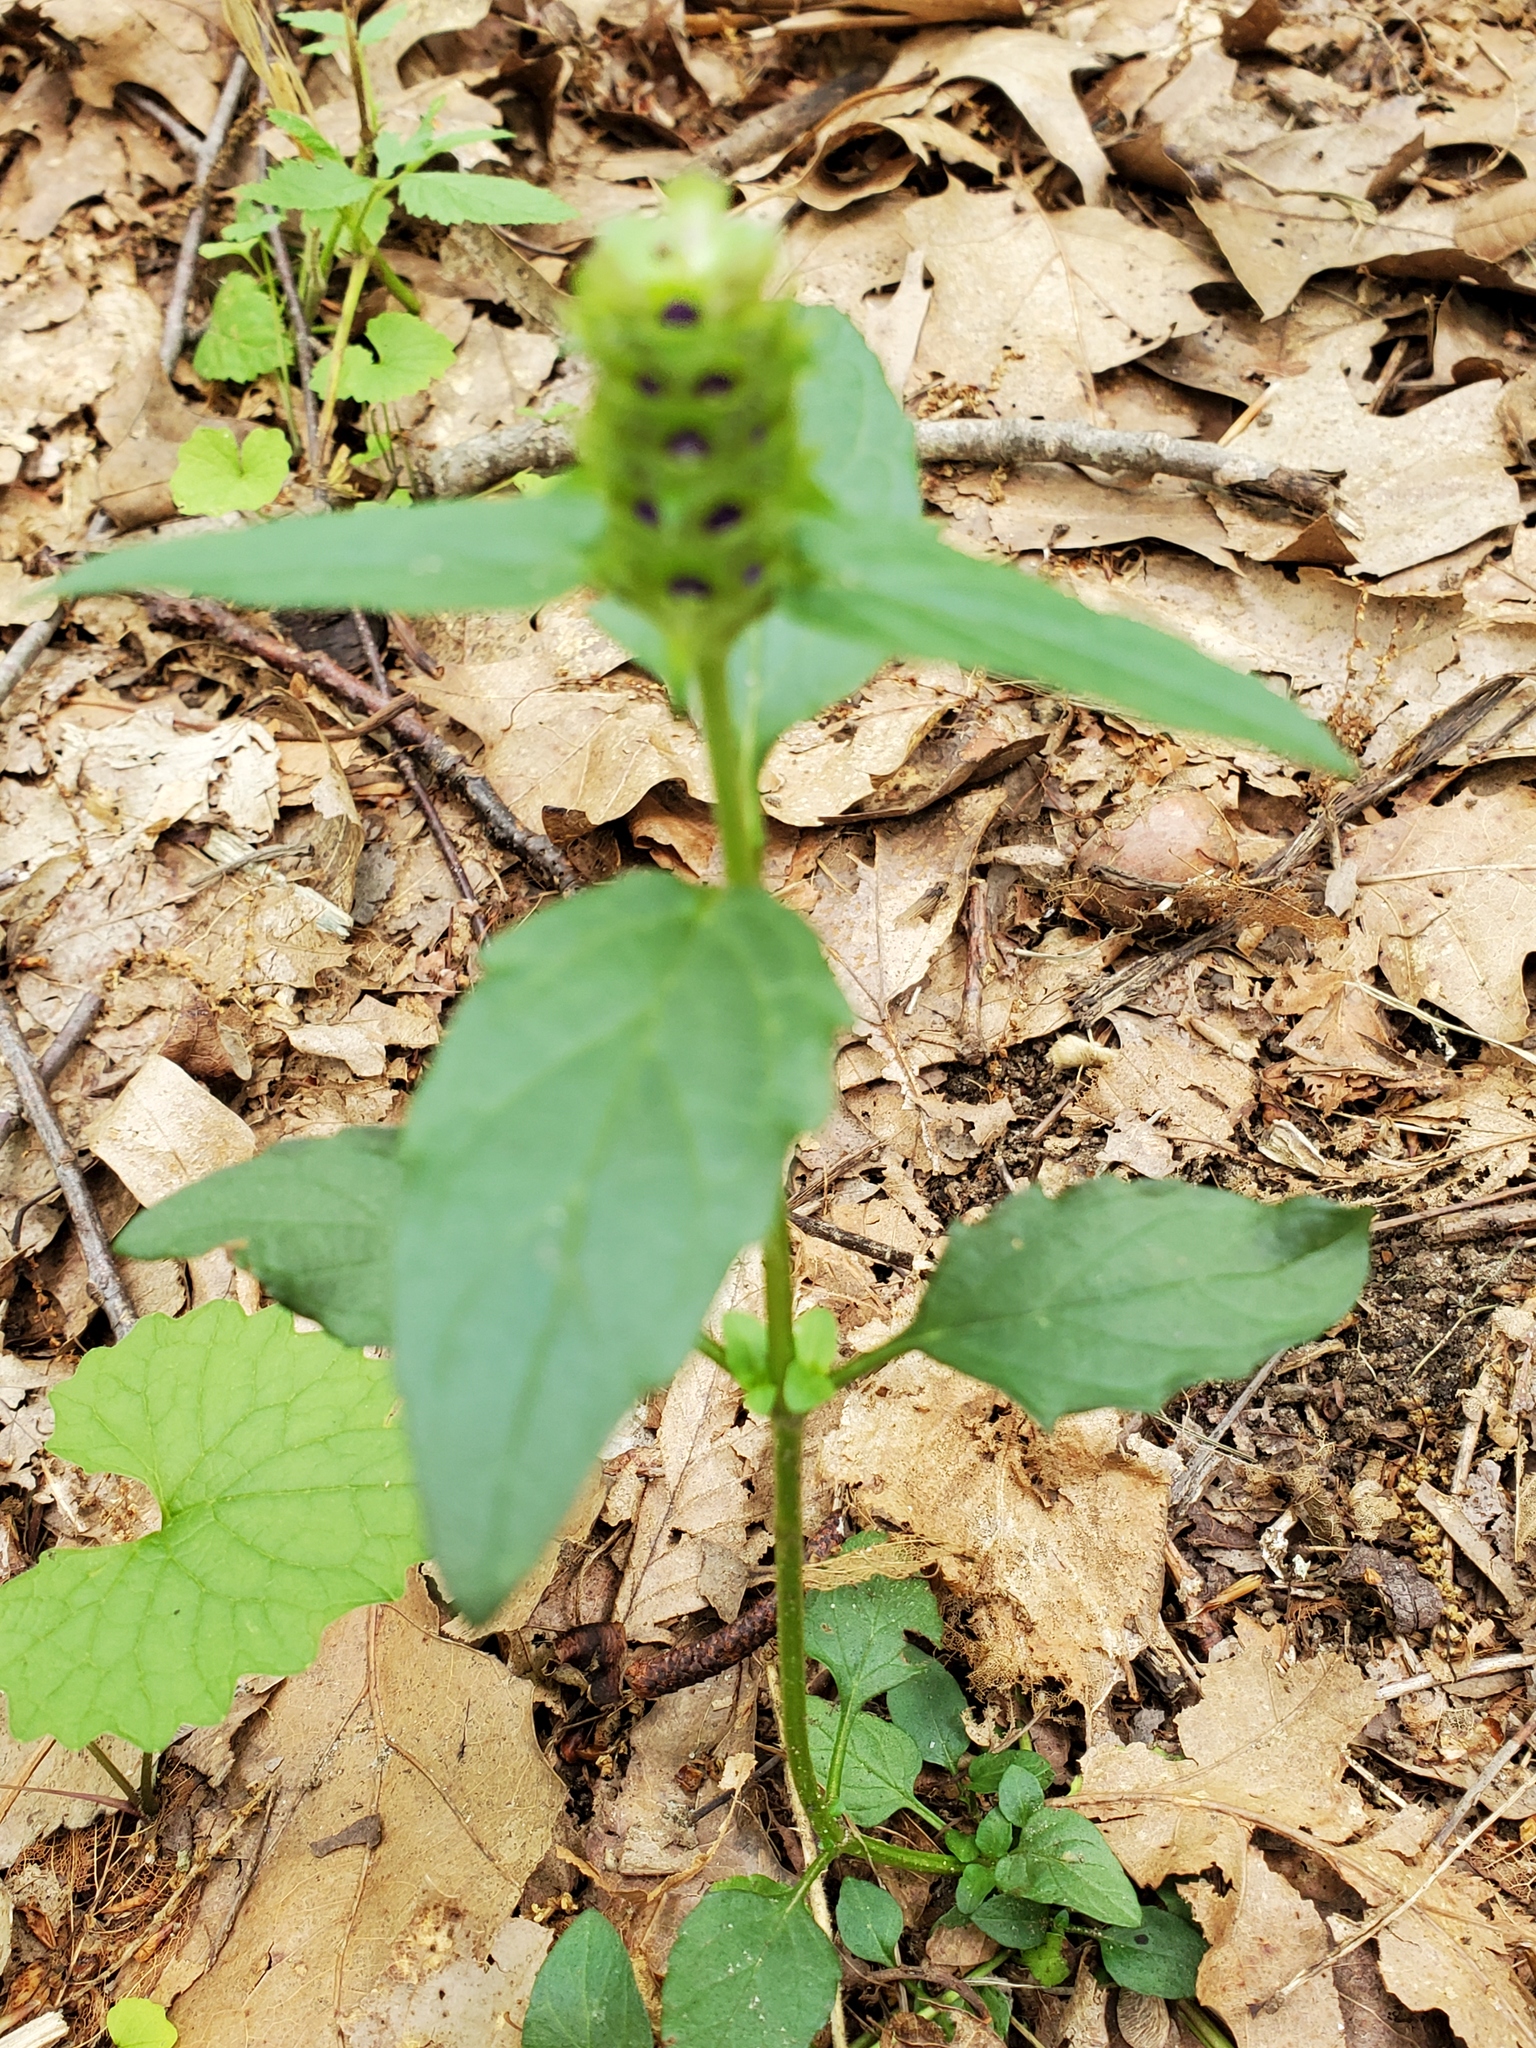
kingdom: Plantae
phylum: Tracheophyta
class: Magnoliopsida
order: Lamiales
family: Lamiaceae
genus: Prunella
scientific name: Prunella vulgaris
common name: Heal-all
